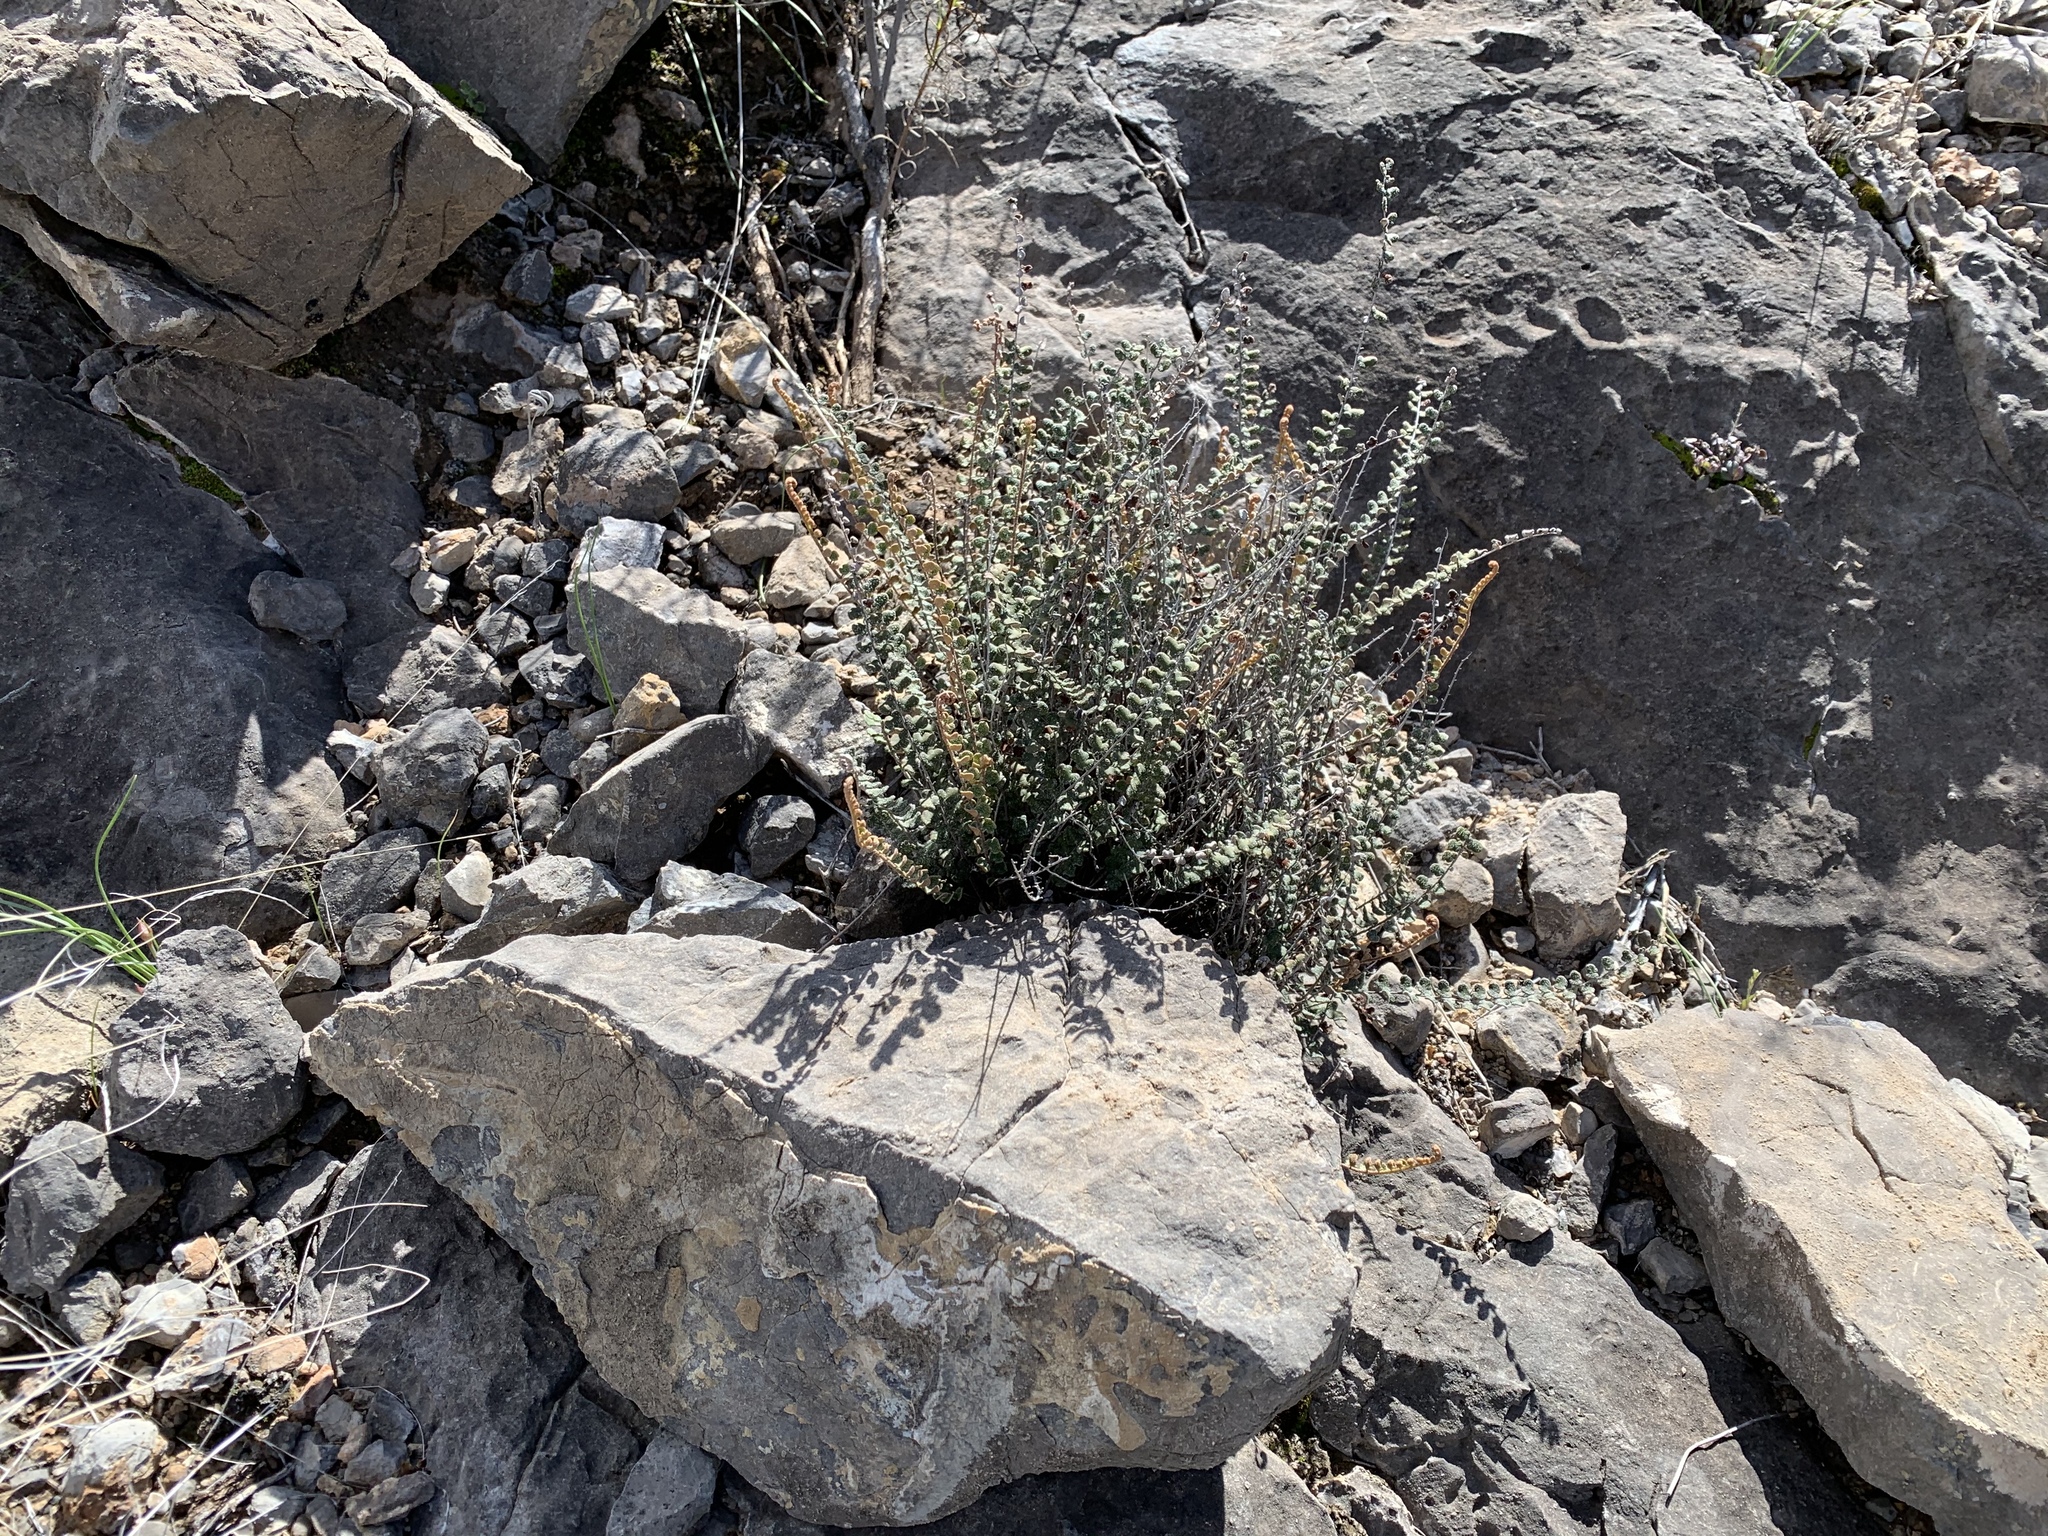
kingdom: Plantae
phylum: Tracheophyta
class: Polypodiopsida
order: Polypodiales
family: Pteridaceae
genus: Astrolepis
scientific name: Astrolepis cochisensis
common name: Scaly cloak fern
